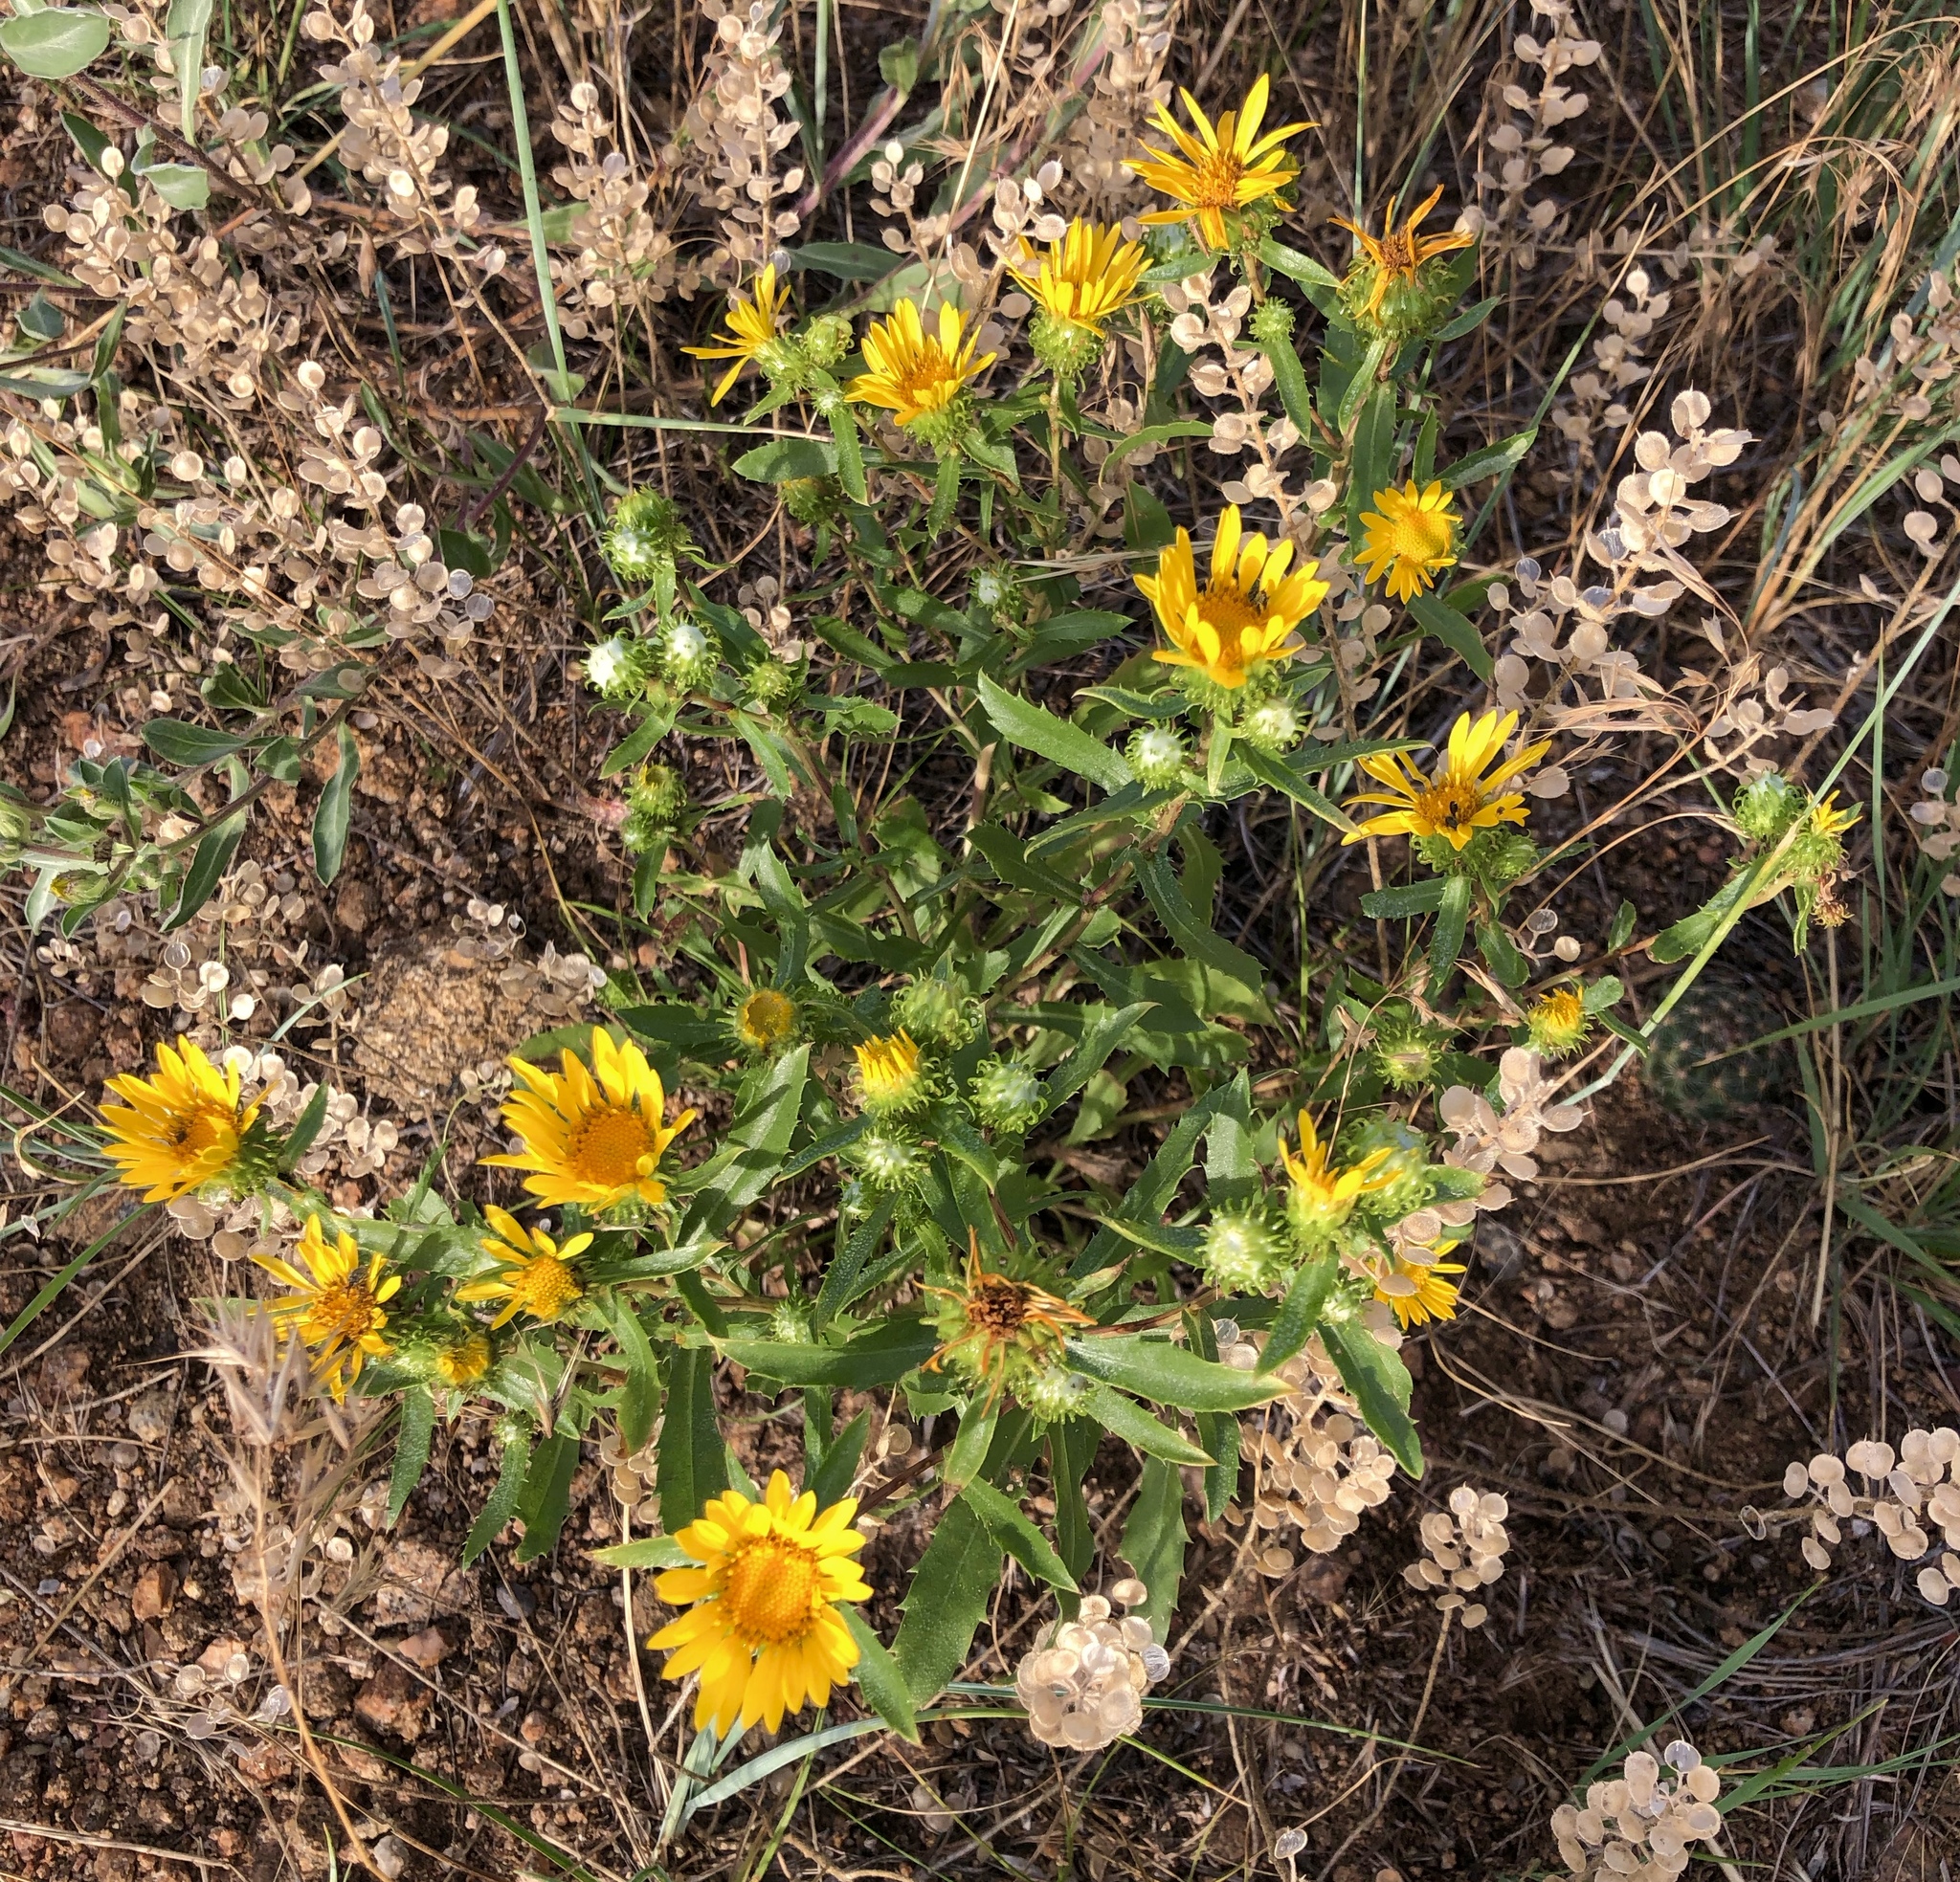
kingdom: Plantae
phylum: Tracheophyta
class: Magnoliopsida
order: Asterales
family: Asteraceae
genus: Grindelia
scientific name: Grindelia squarrosa
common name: Curly-cup gumweed
